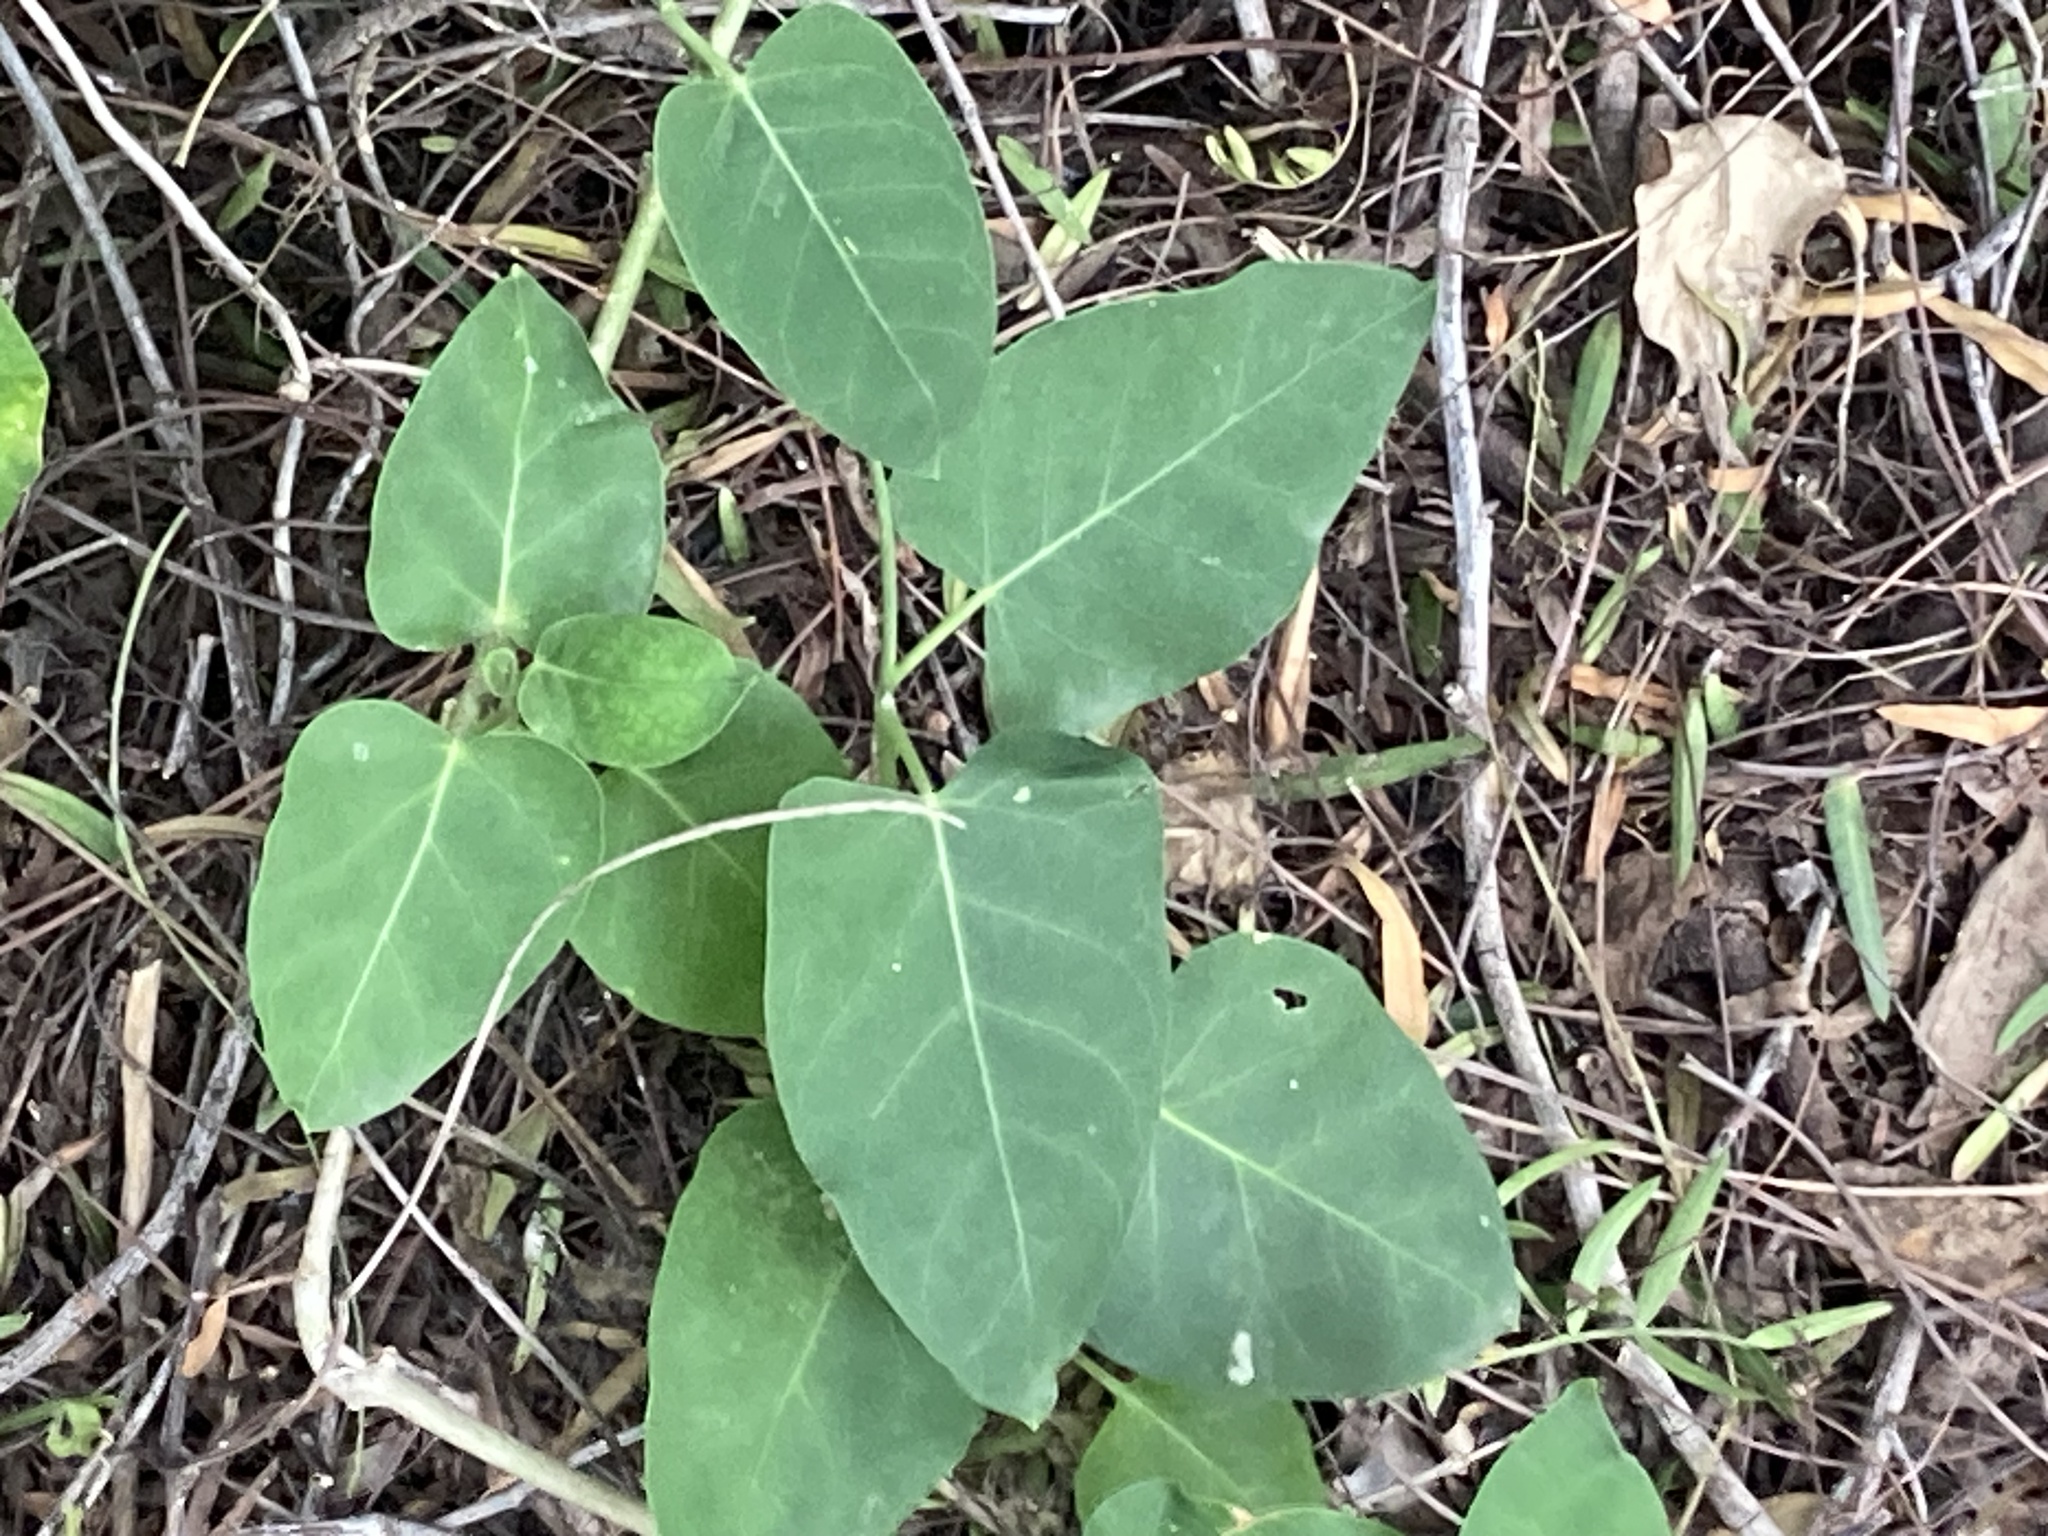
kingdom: Plantae
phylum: Tracheophyta
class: Magnoliopsida
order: Gentianales
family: Apocynaceae
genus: Araujia
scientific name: Araujia sericifera
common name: White bladderflower
